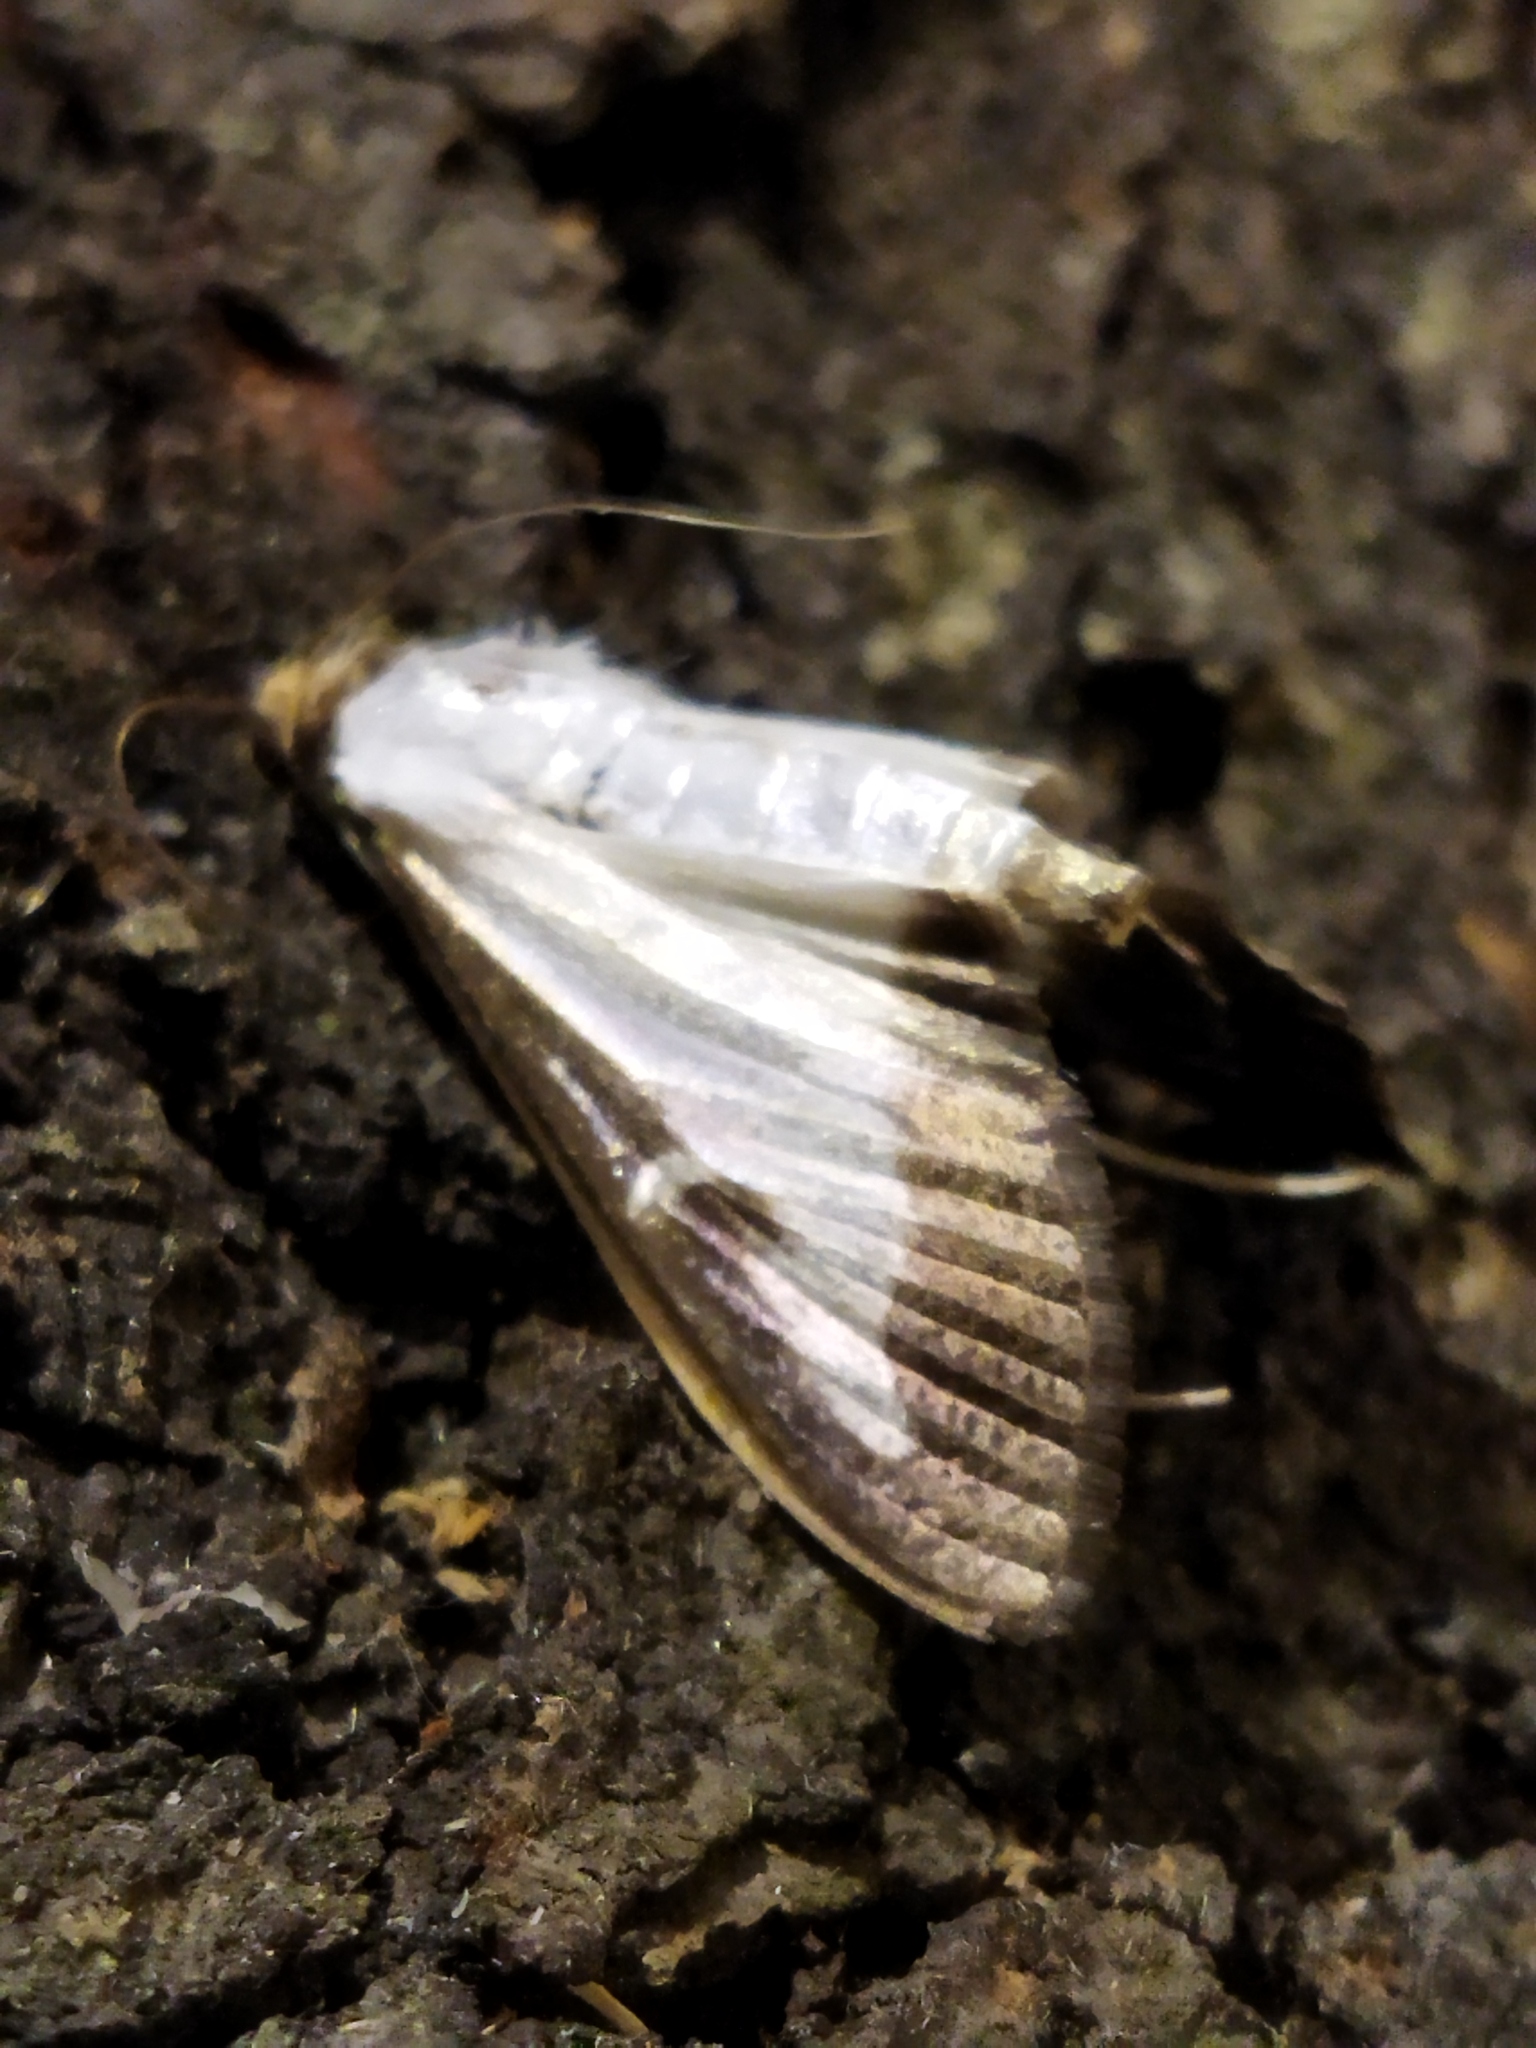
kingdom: Animalia
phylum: Arthropoda
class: Insecta
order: Lepidoptera
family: Crambidae
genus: Cydalima
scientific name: Cydalima perspectalis
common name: Box tree moth
